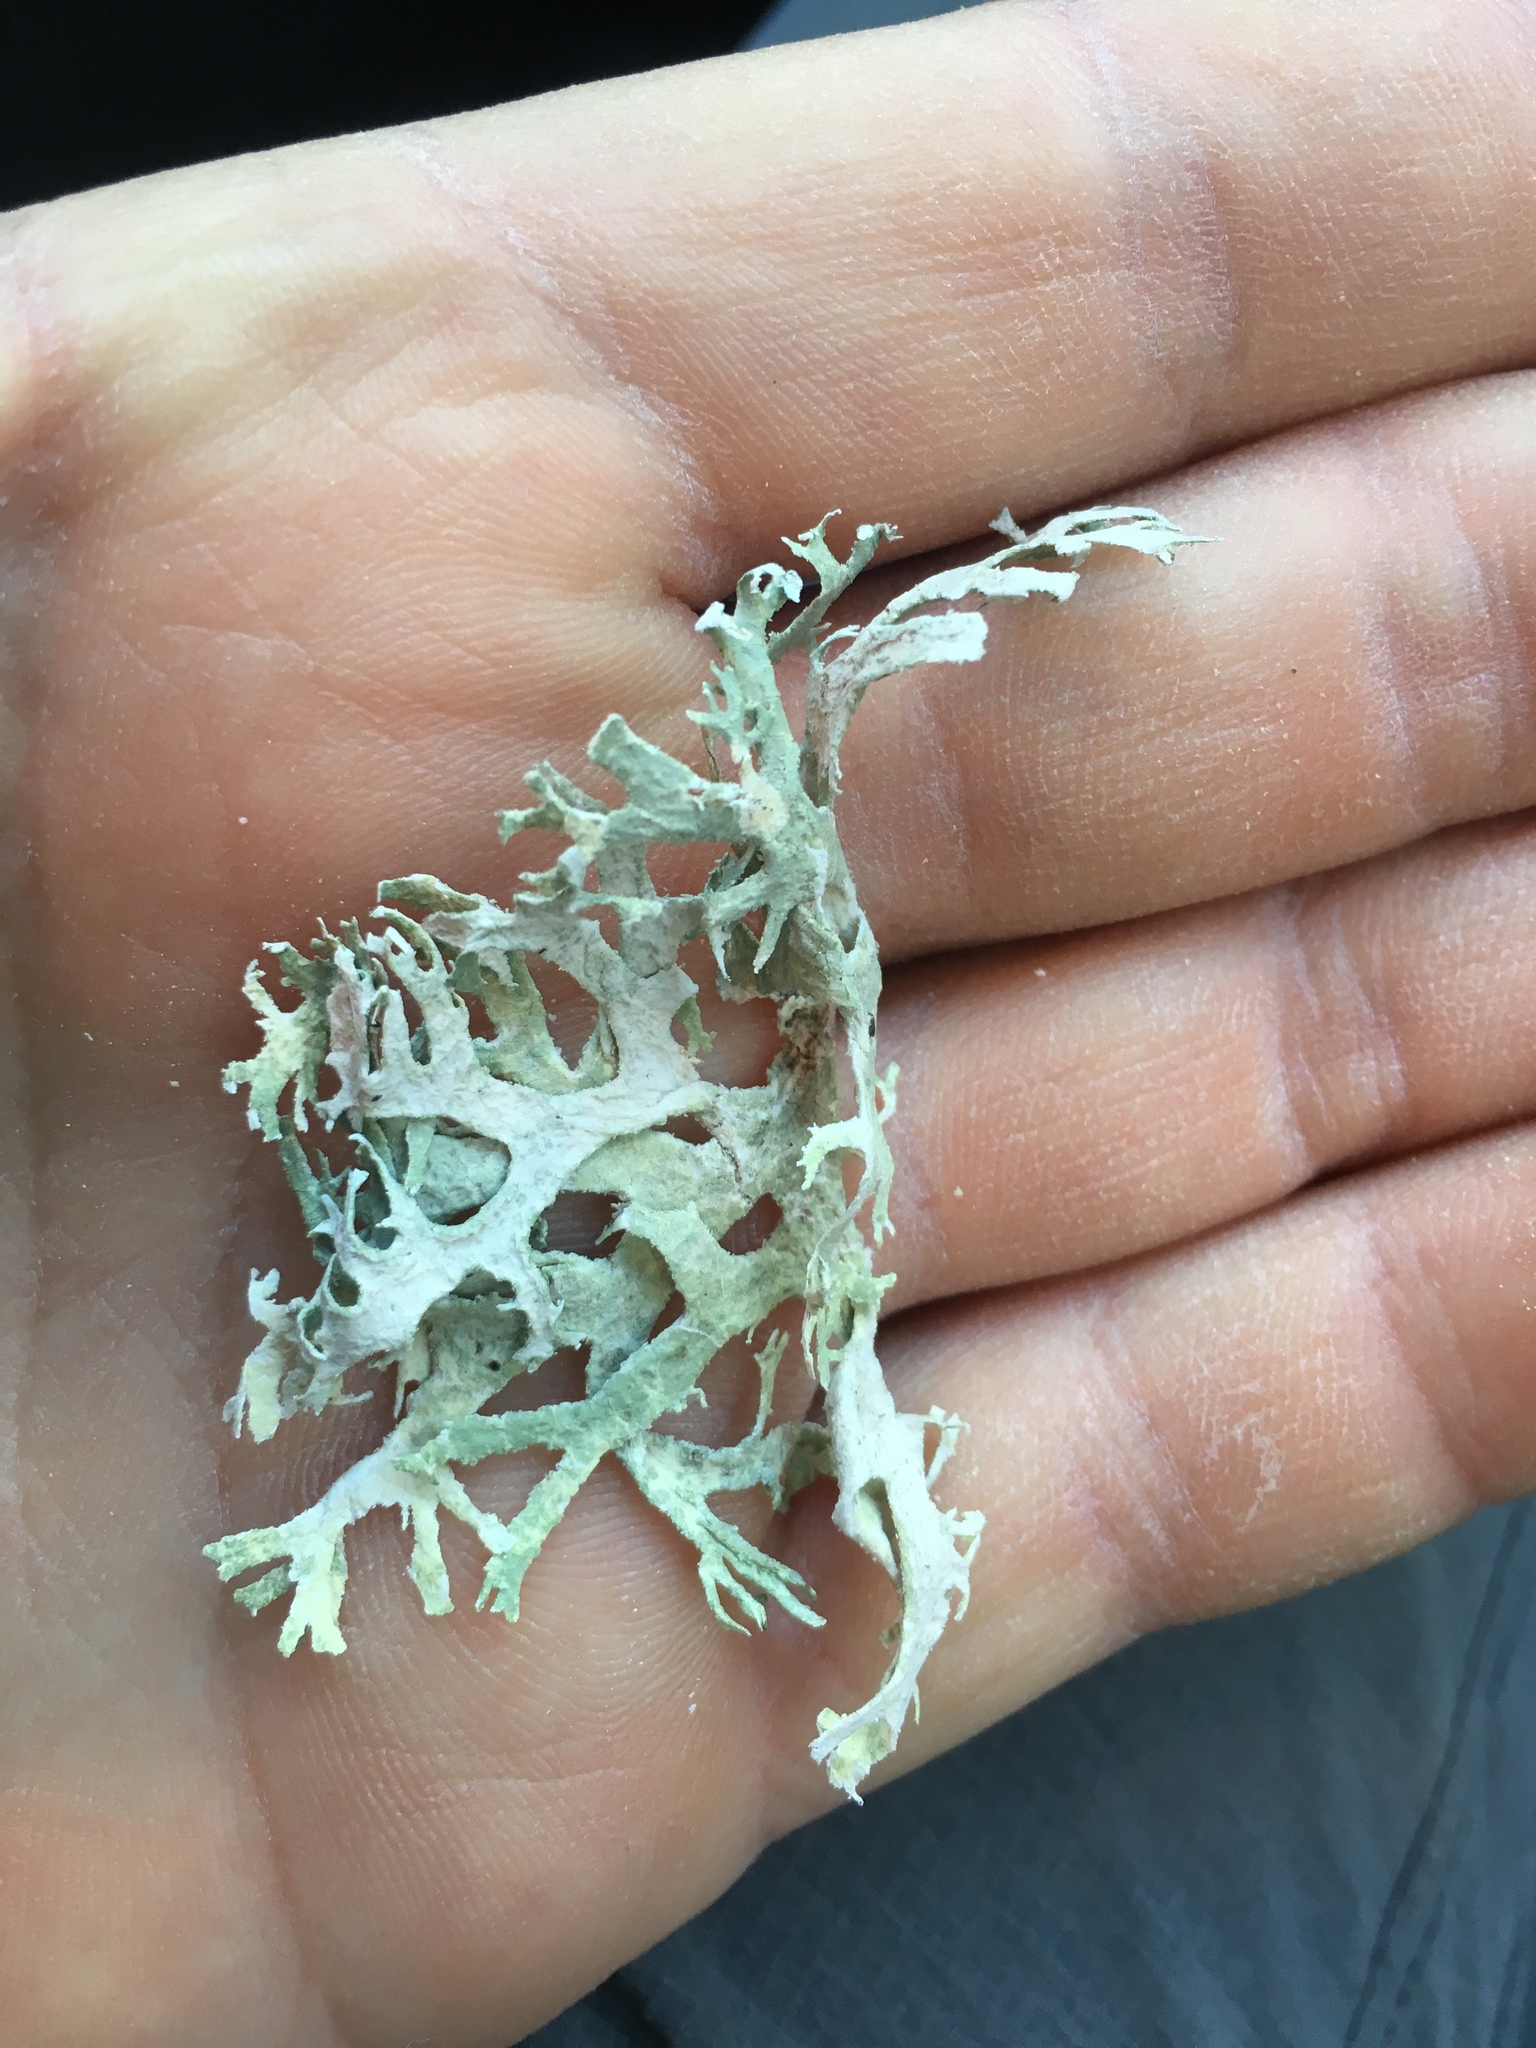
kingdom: Fungi
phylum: Ascomycota
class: Lecanoromycetes
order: Lecanorales
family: Parmeliaceae
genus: Evernia
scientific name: Evernia prunastri
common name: Oak moss
